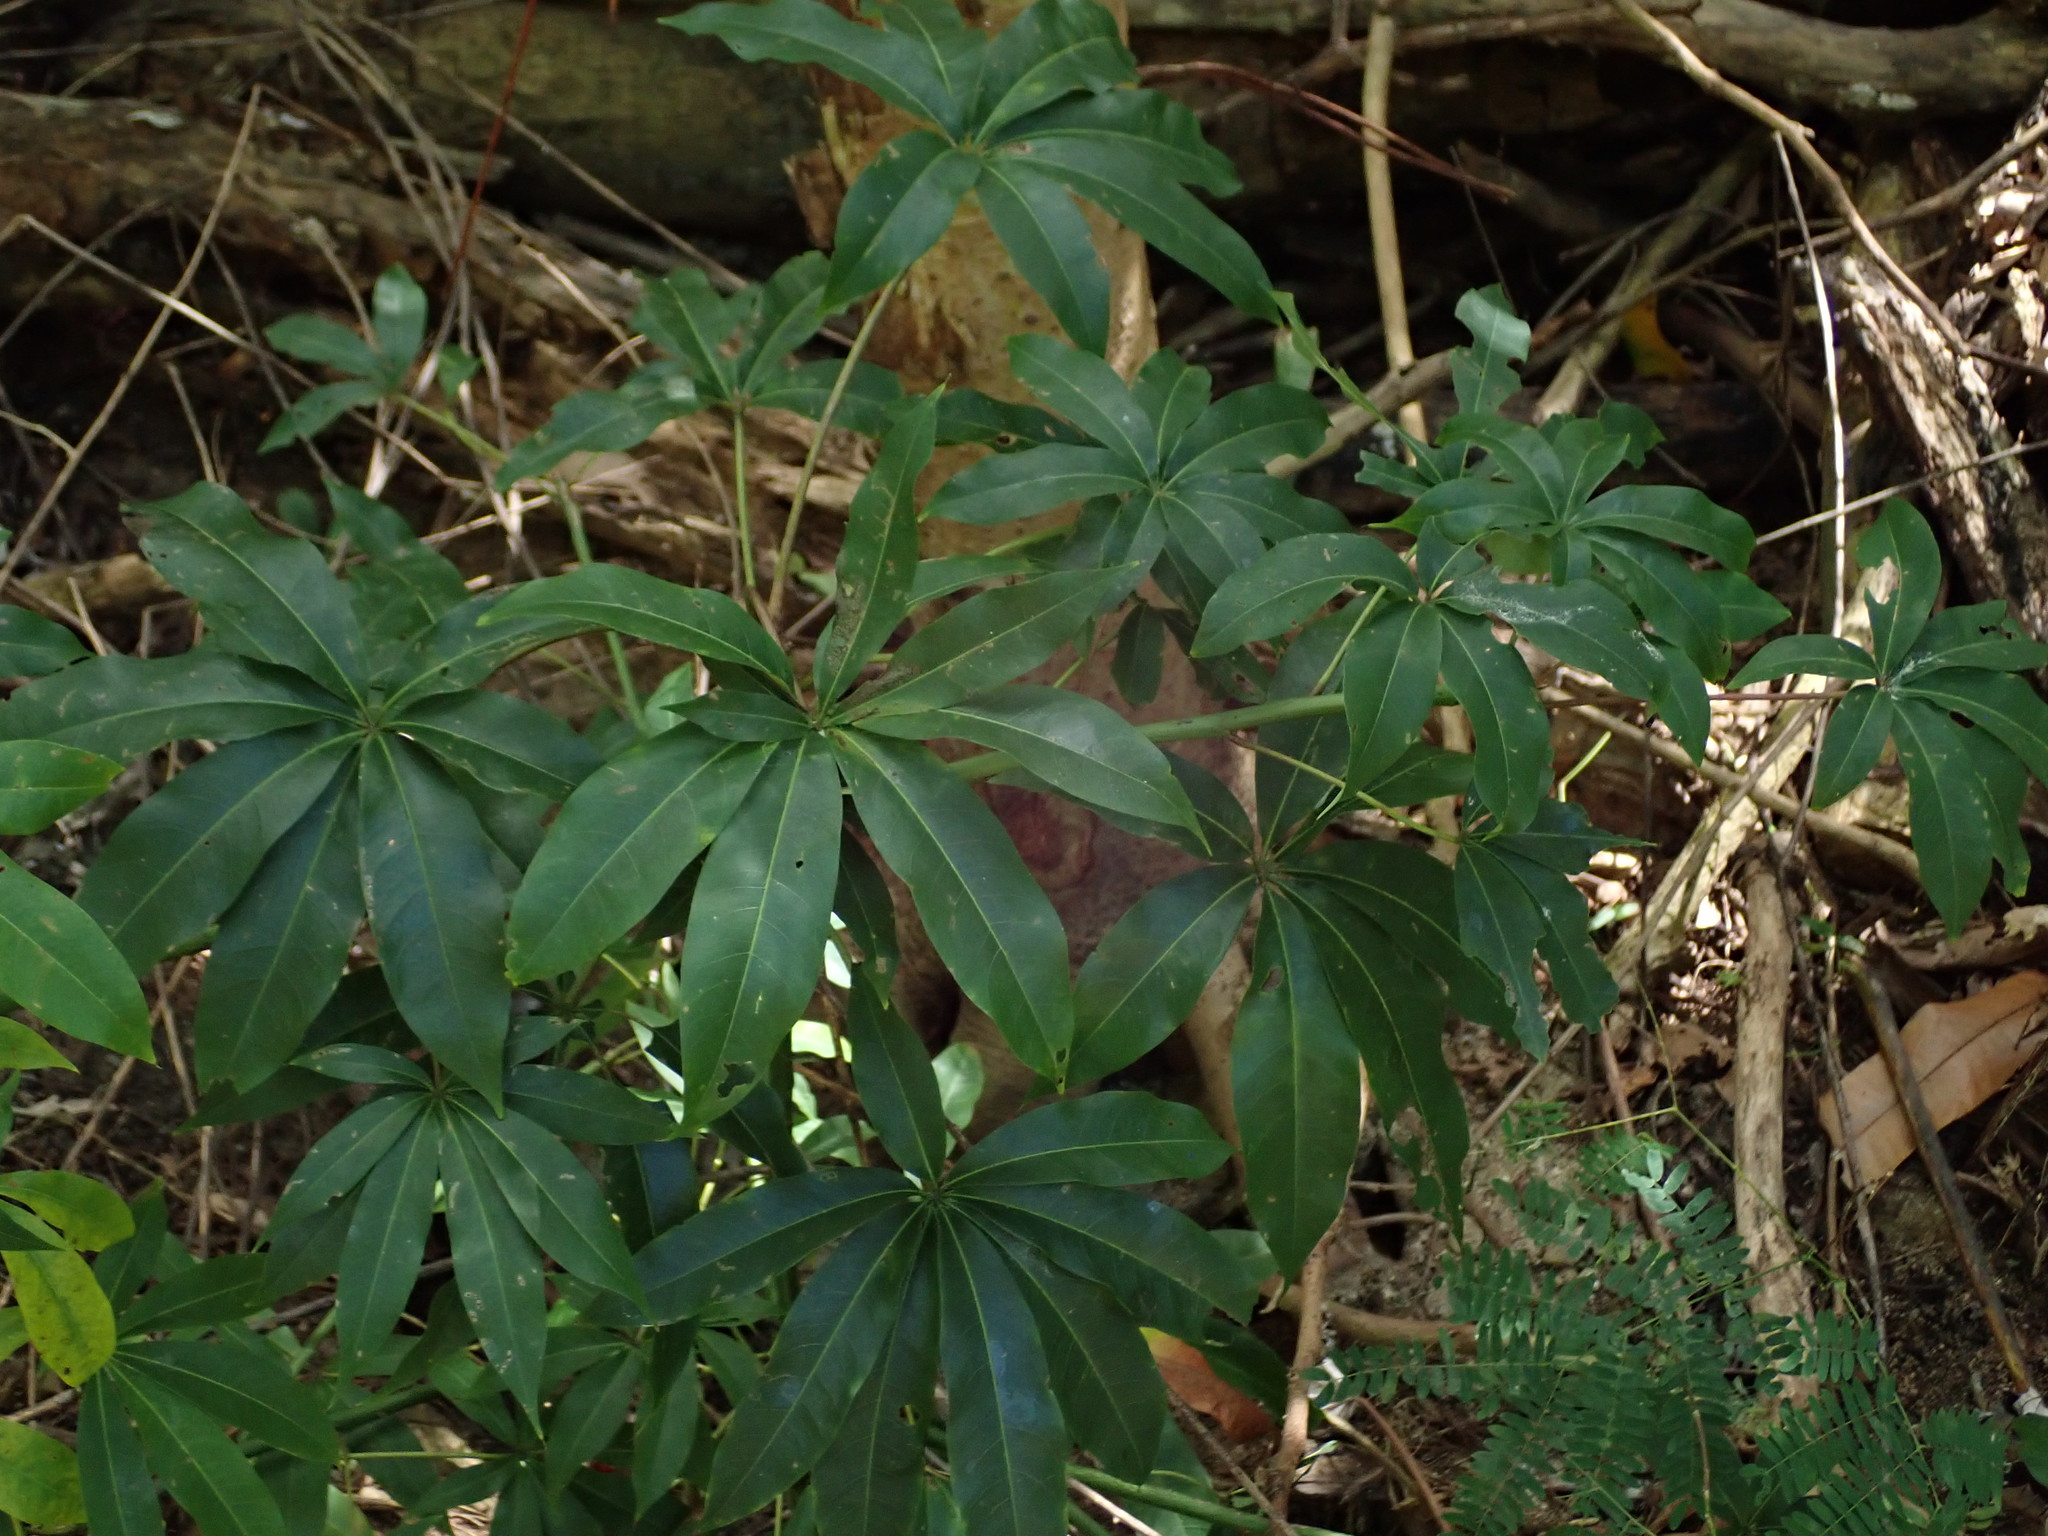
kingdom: Plantae
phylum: Tracheophyta
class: Magnoliopsida
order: Malvales
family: Malvaceae
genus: Ceiba
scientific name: Ceiba pentandra
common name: Kapok
